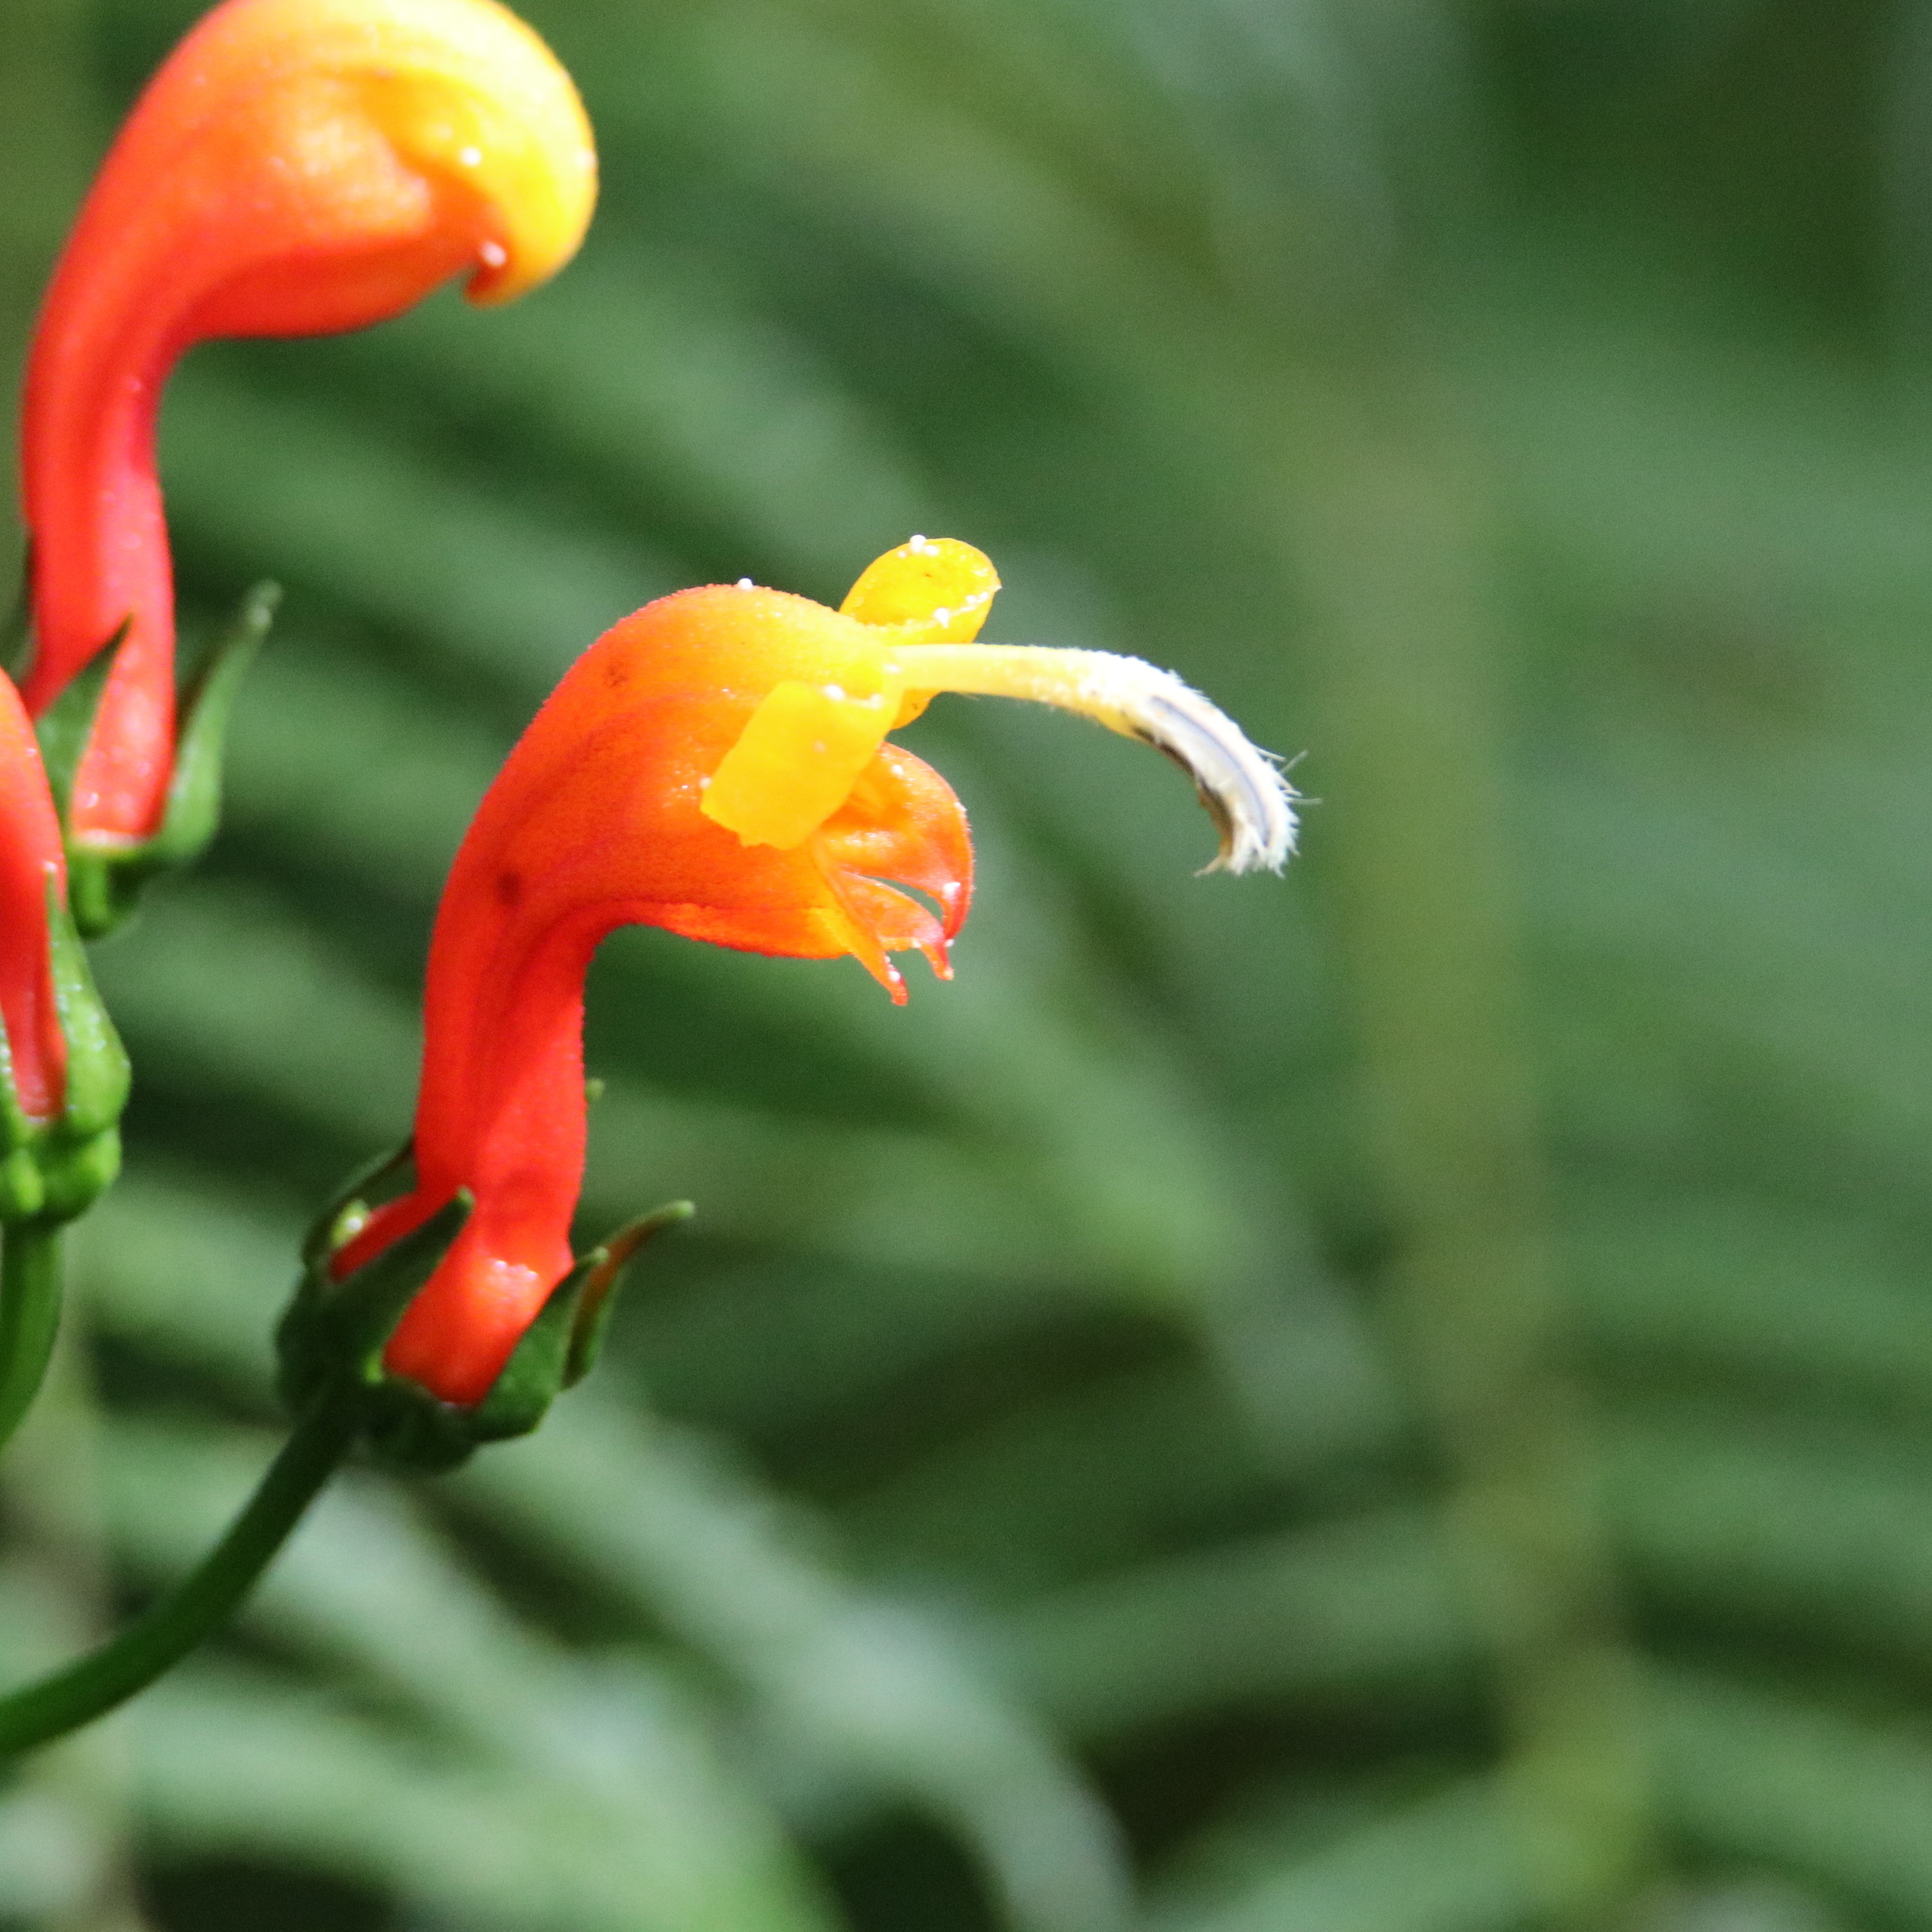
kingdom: Plantae
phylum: Tracheophyta
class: Magnoliopsida
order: Asterales
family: Campanulaceae
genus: Centropogon
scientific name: Centropogon granulosus
